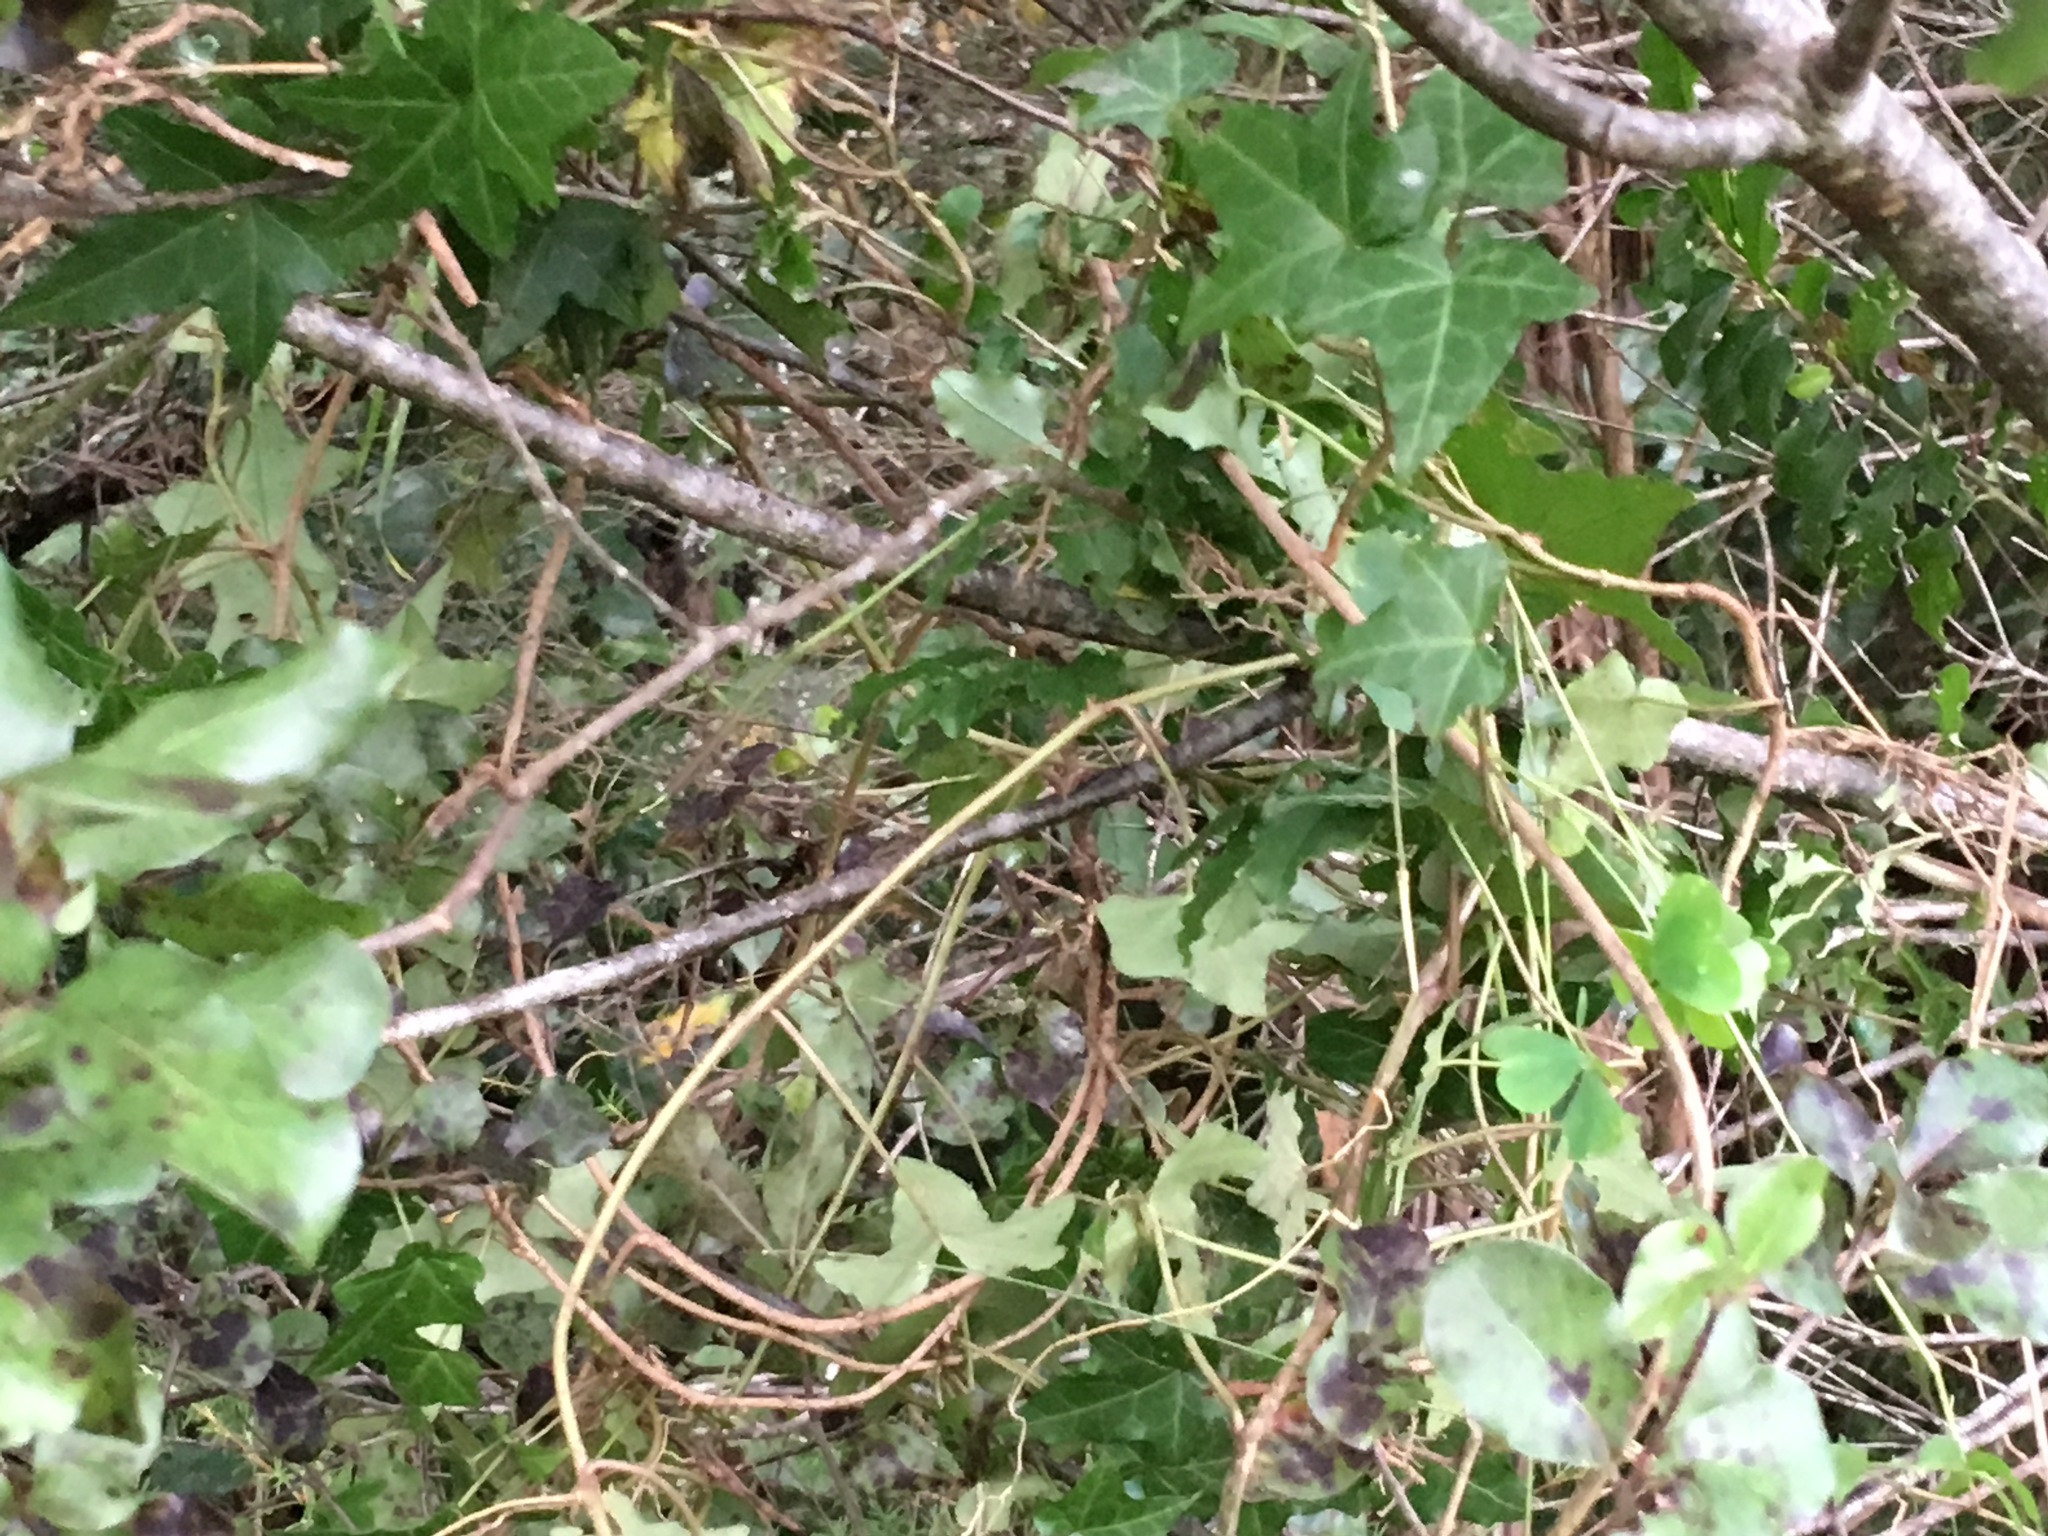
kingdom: Plantae
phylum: Tracheophyta
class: Magnoliopsida
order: Apiales
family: Araliaceae
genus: Hedera
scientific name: Hedera helix
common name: Ivy
